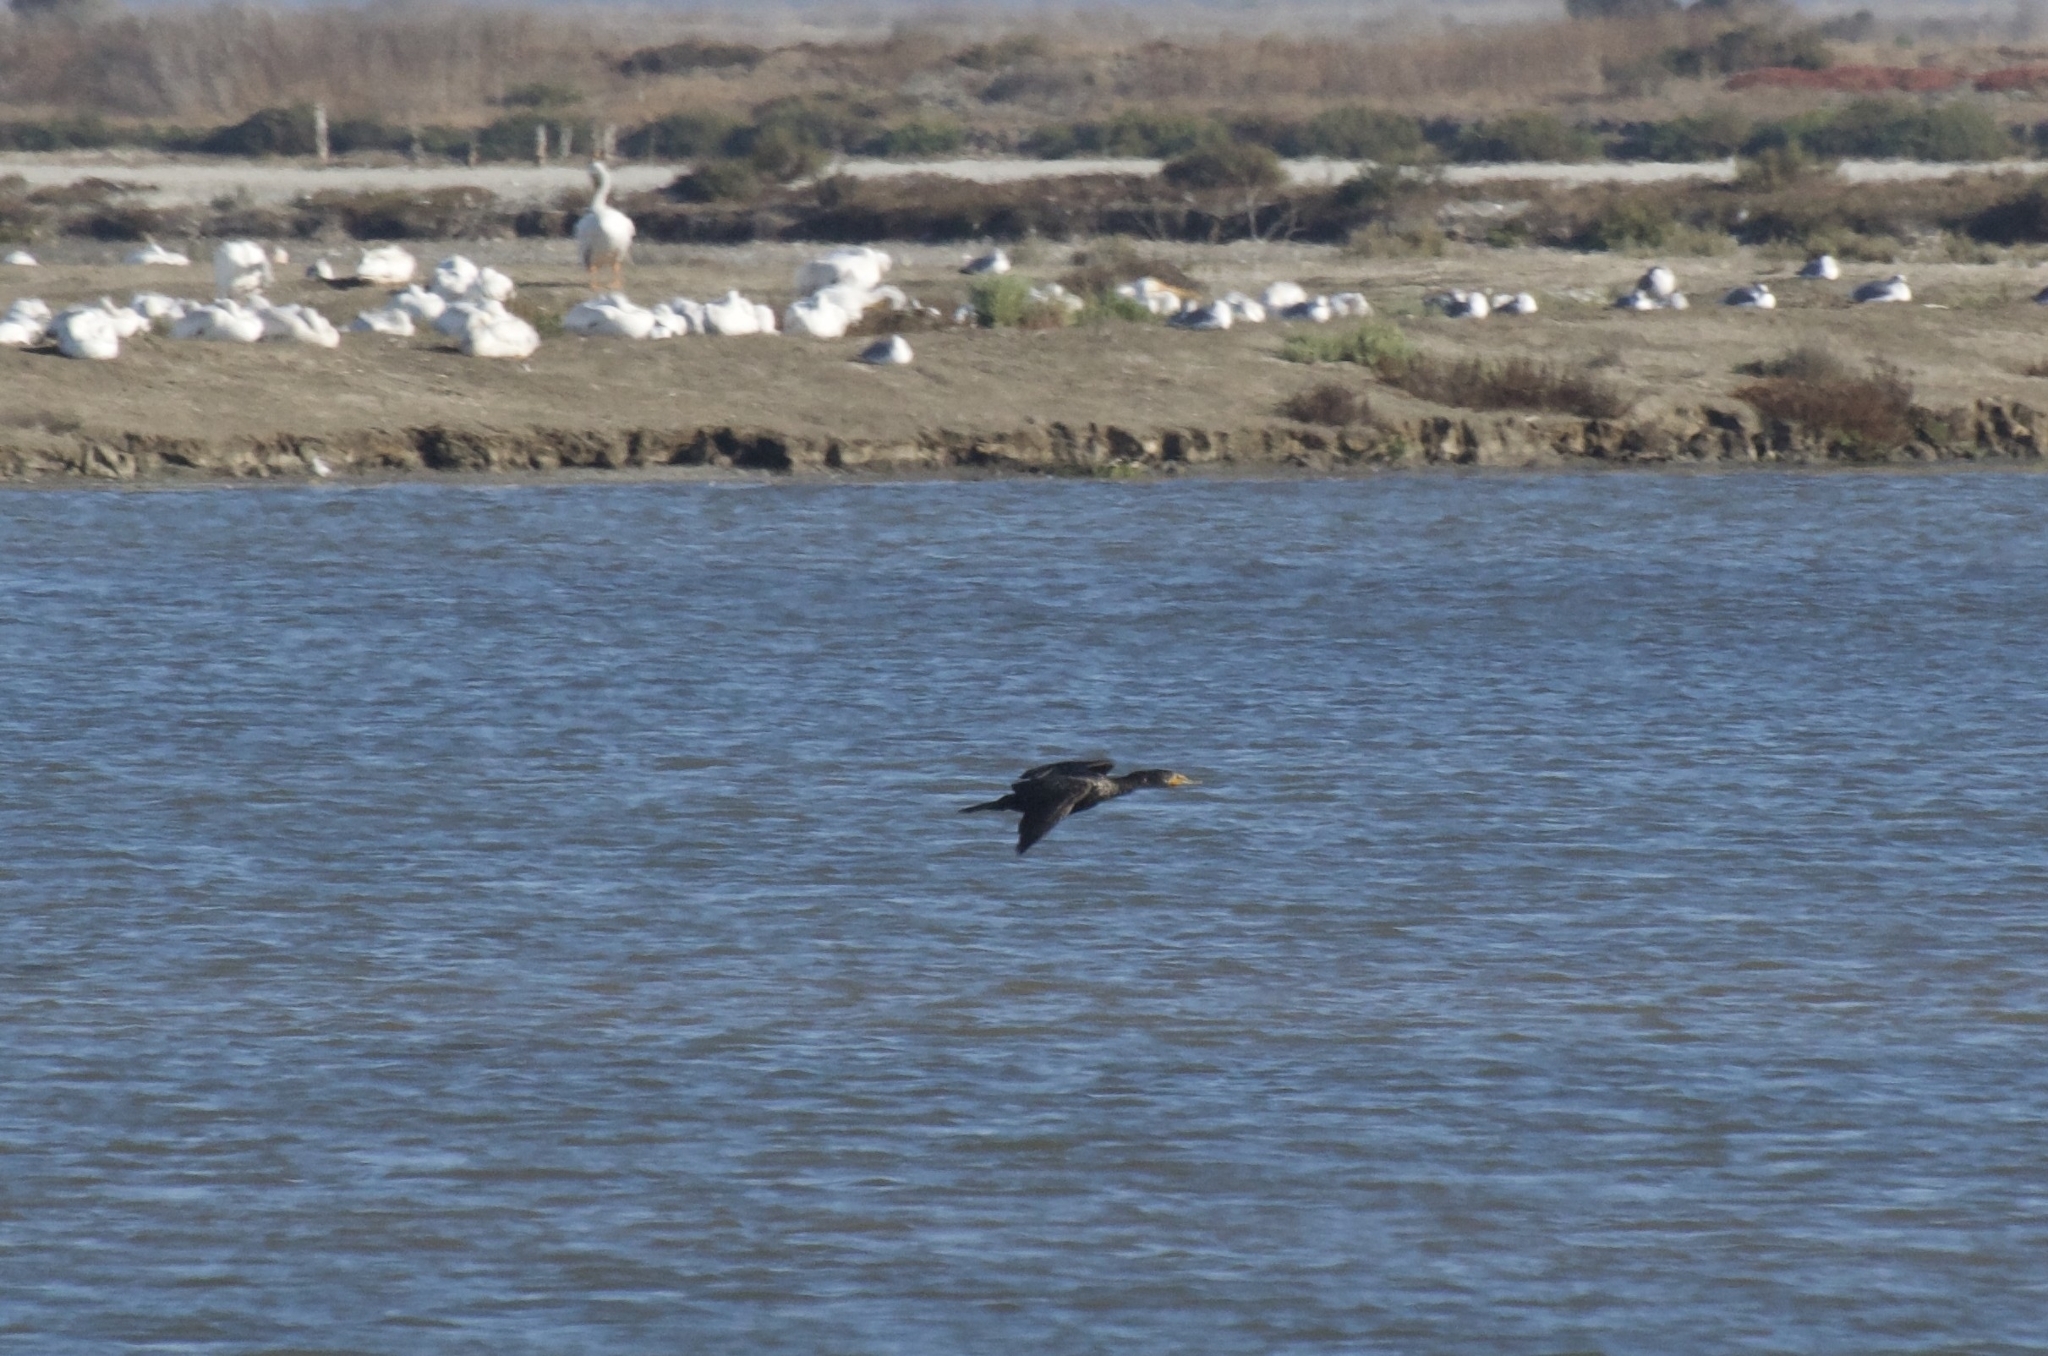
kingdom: Animalia
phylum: Chordata
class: Aves
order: Suliformes
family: Phalacrocoracidae
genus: Phalacrocorax
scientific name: Phalacrocorax auritus
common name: Double-crested cormorant
